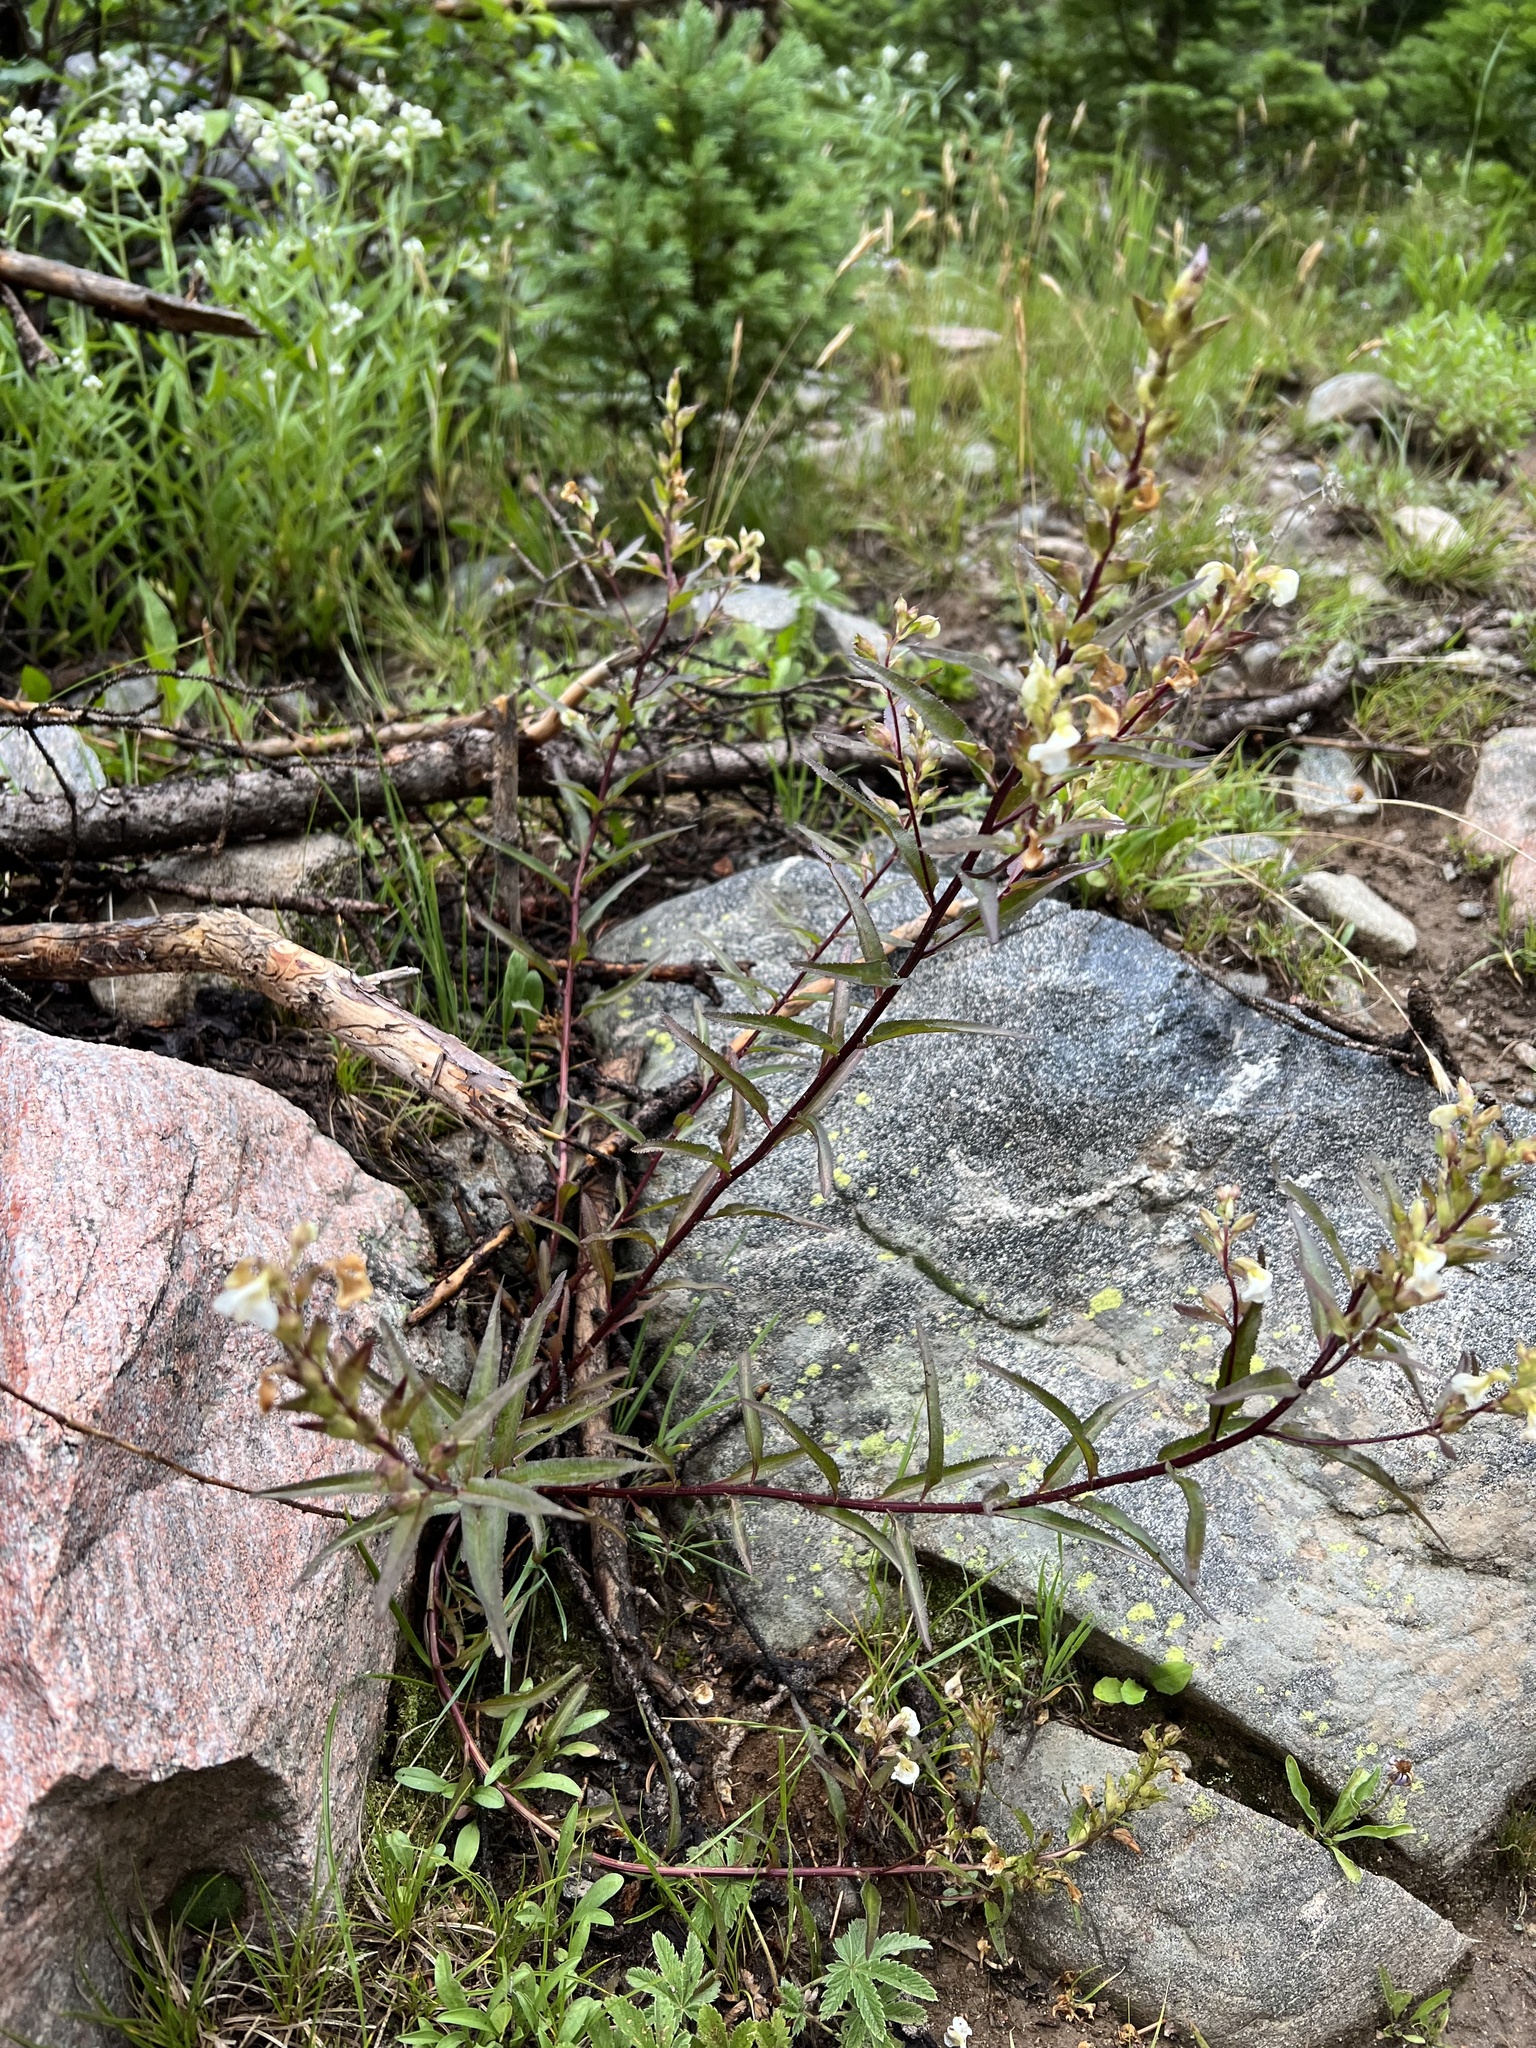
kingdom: Plantae
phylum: Tracheophyta
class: Magnoliopsida
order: Lamiales
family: Orobanchaceae
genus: Pedicularis
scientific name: Pedicularis racemosa
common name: Leafy lousewort
